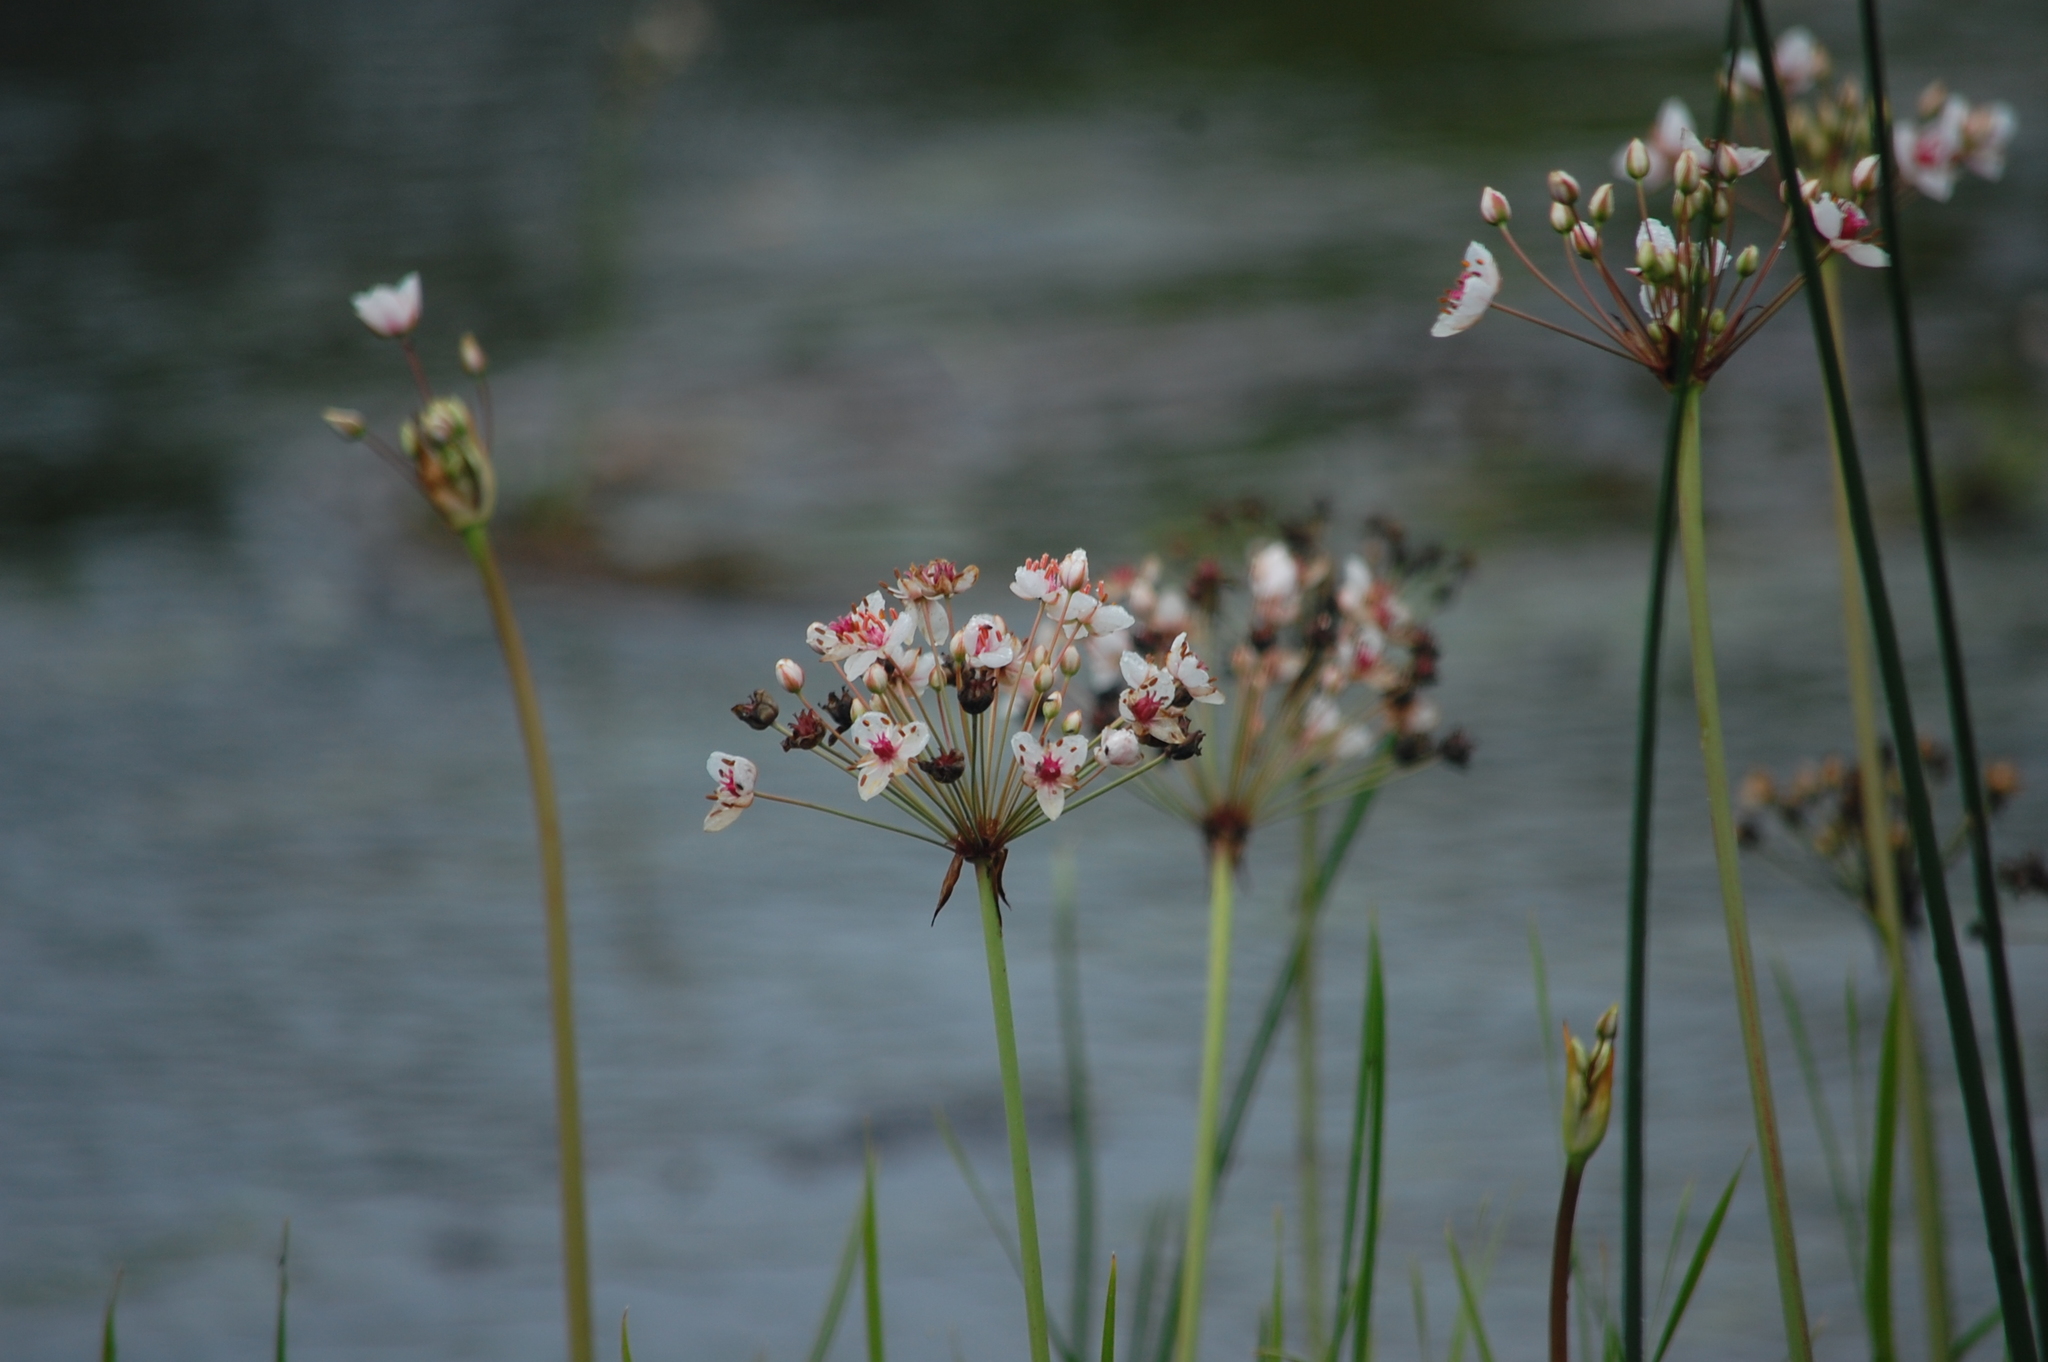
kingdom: Plantae
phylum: Tracheophyta
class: Liliopsida
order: Alismatales
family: Butomaceae
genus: Butomus
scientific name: Butomus umbellatus
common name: Flowering-rush
